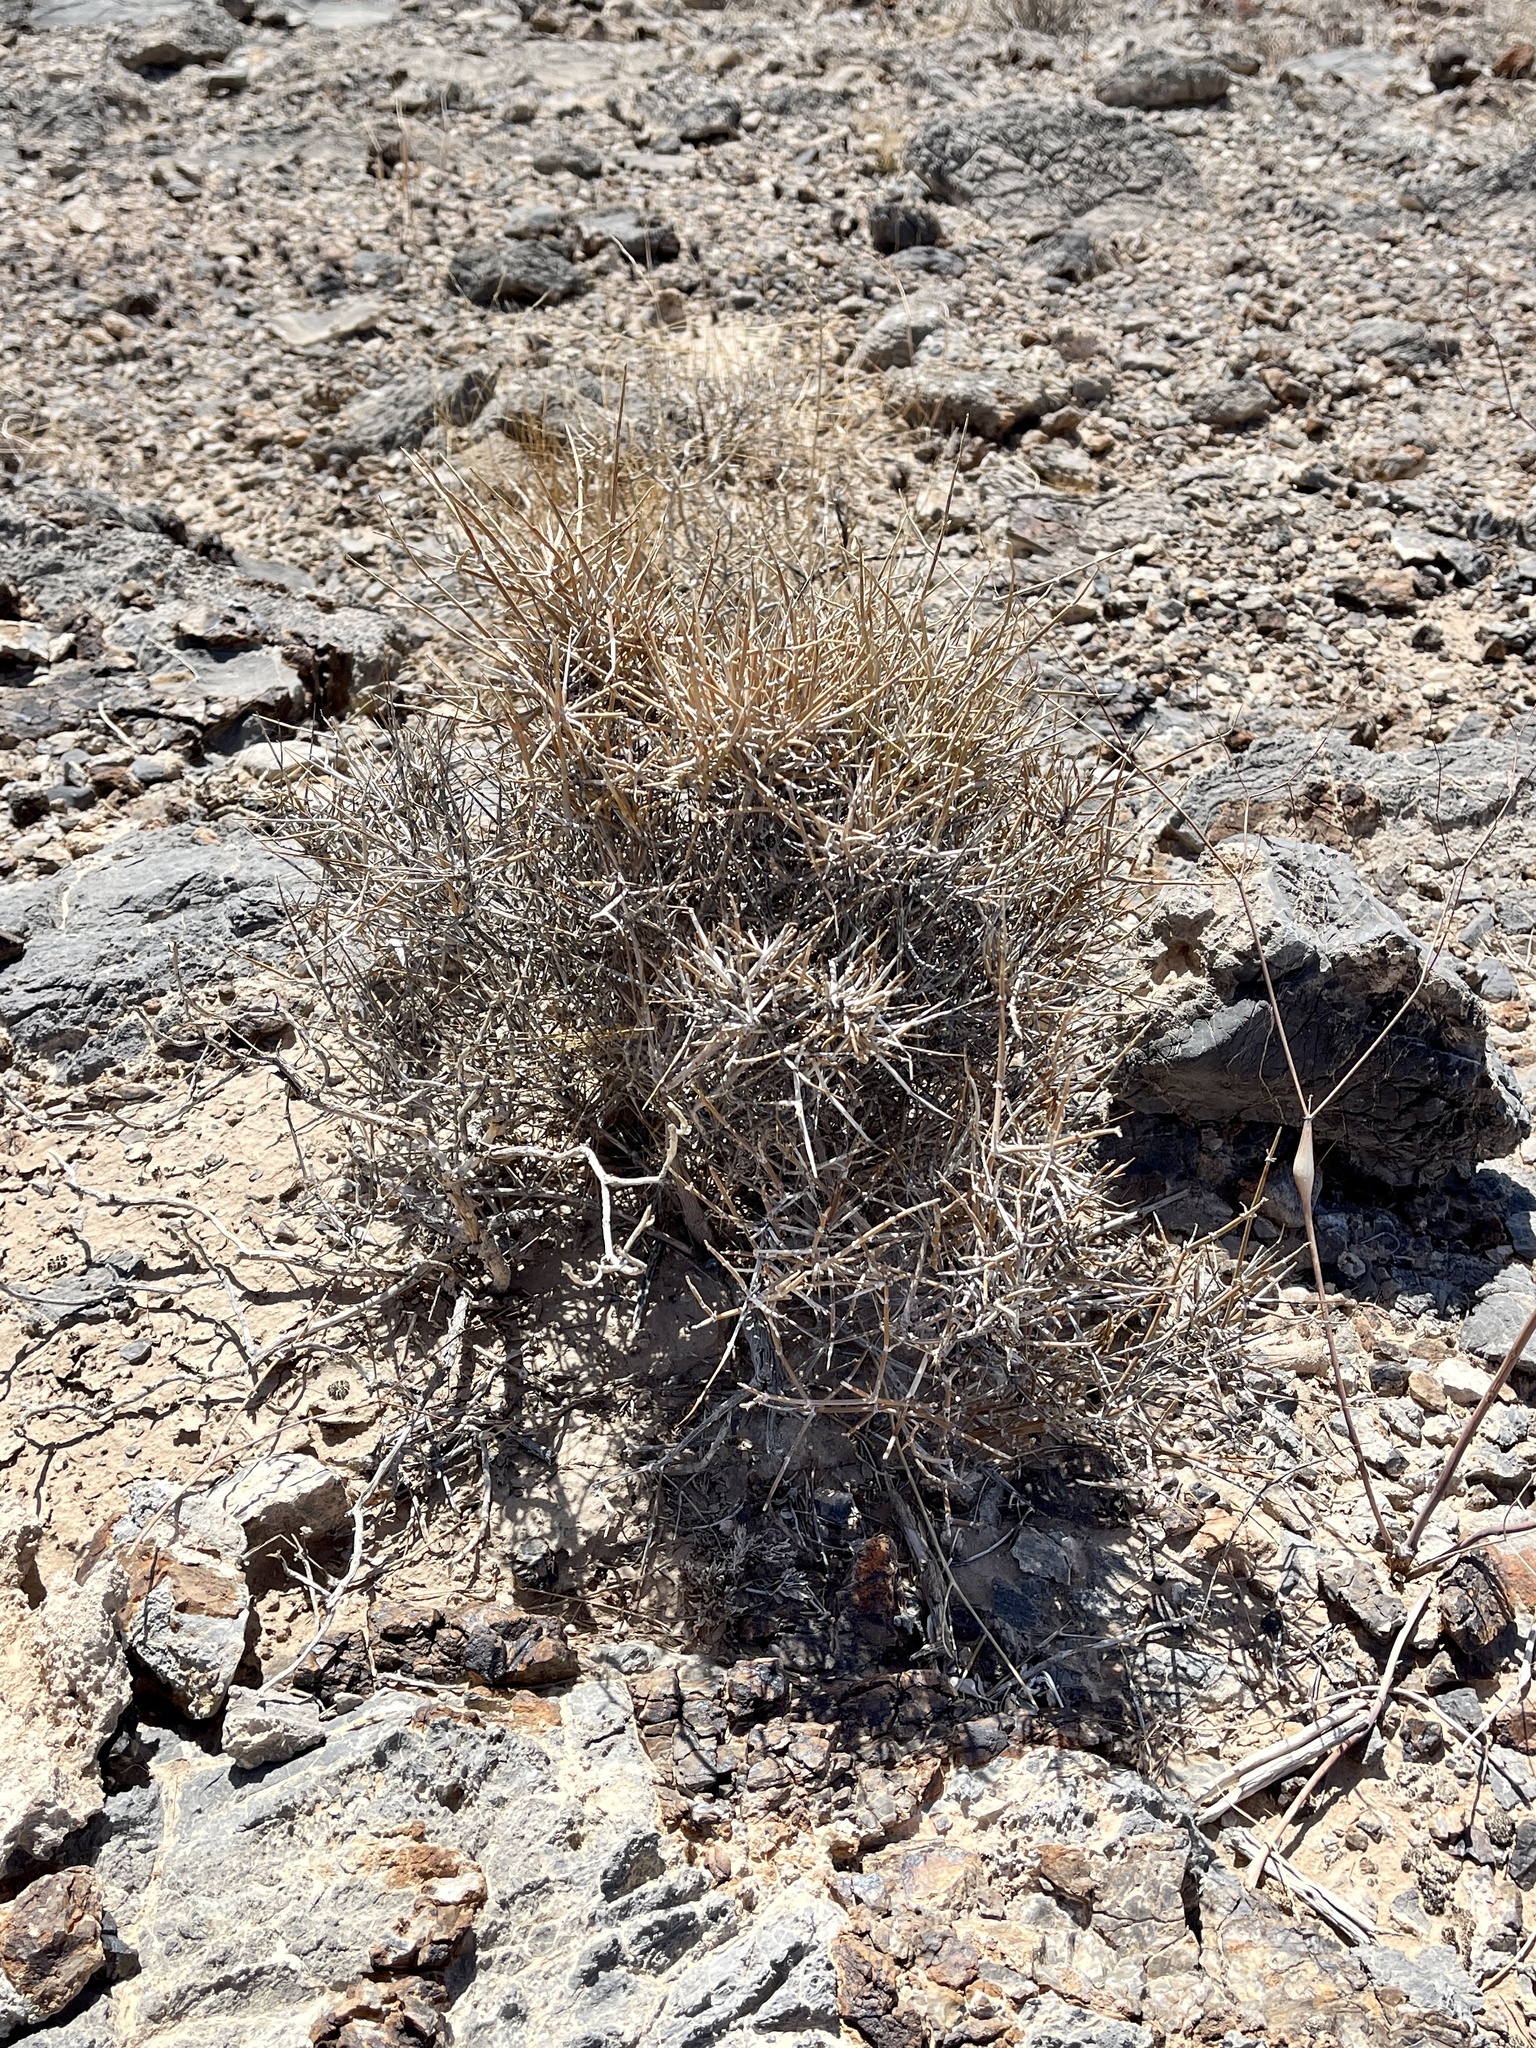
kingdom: Plantae
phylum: Tracheophyta
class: Gnetopsida
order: Ephedrales
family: Ephedraceae
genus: Ephedra
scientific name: Ephedra nevadensis
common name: Gray ephedra
